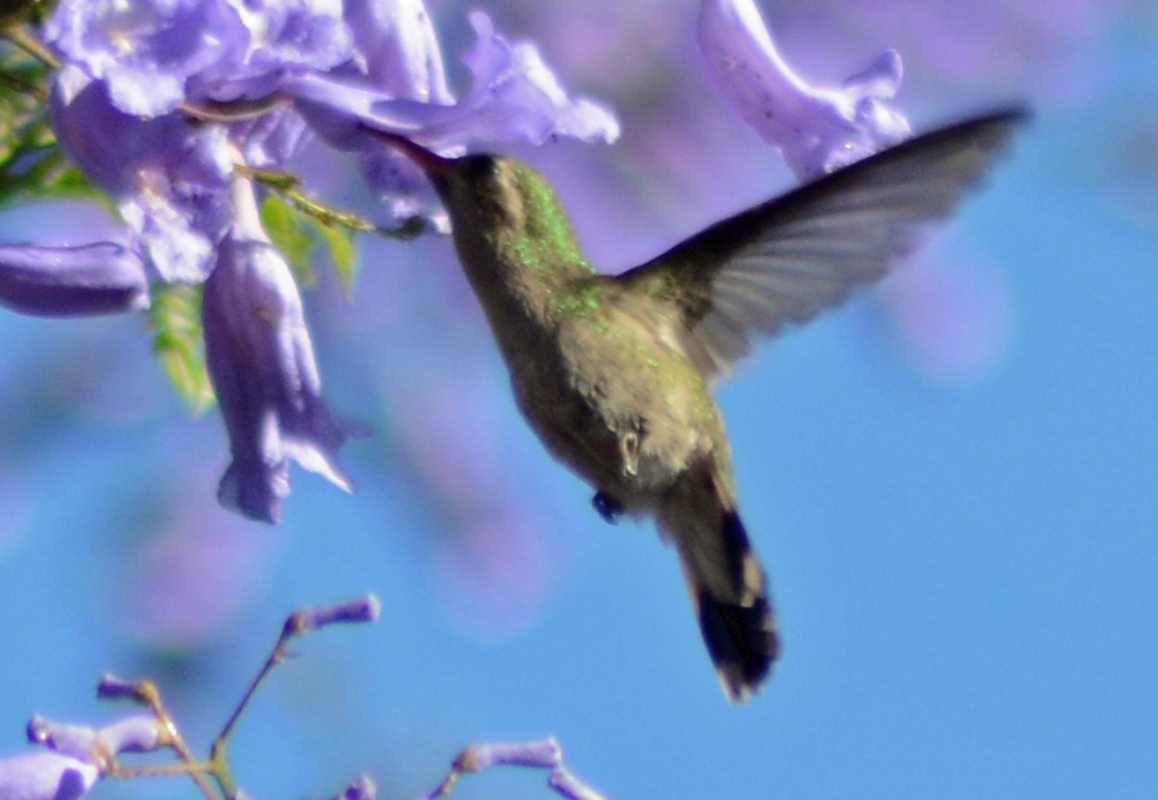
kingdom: Animalia
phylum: Chordata
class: Aves
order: Apodiformes
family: Trochilidae
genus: Cynanthus
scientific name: Cynanthus latirostris
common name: Broad-billed hummingbird
